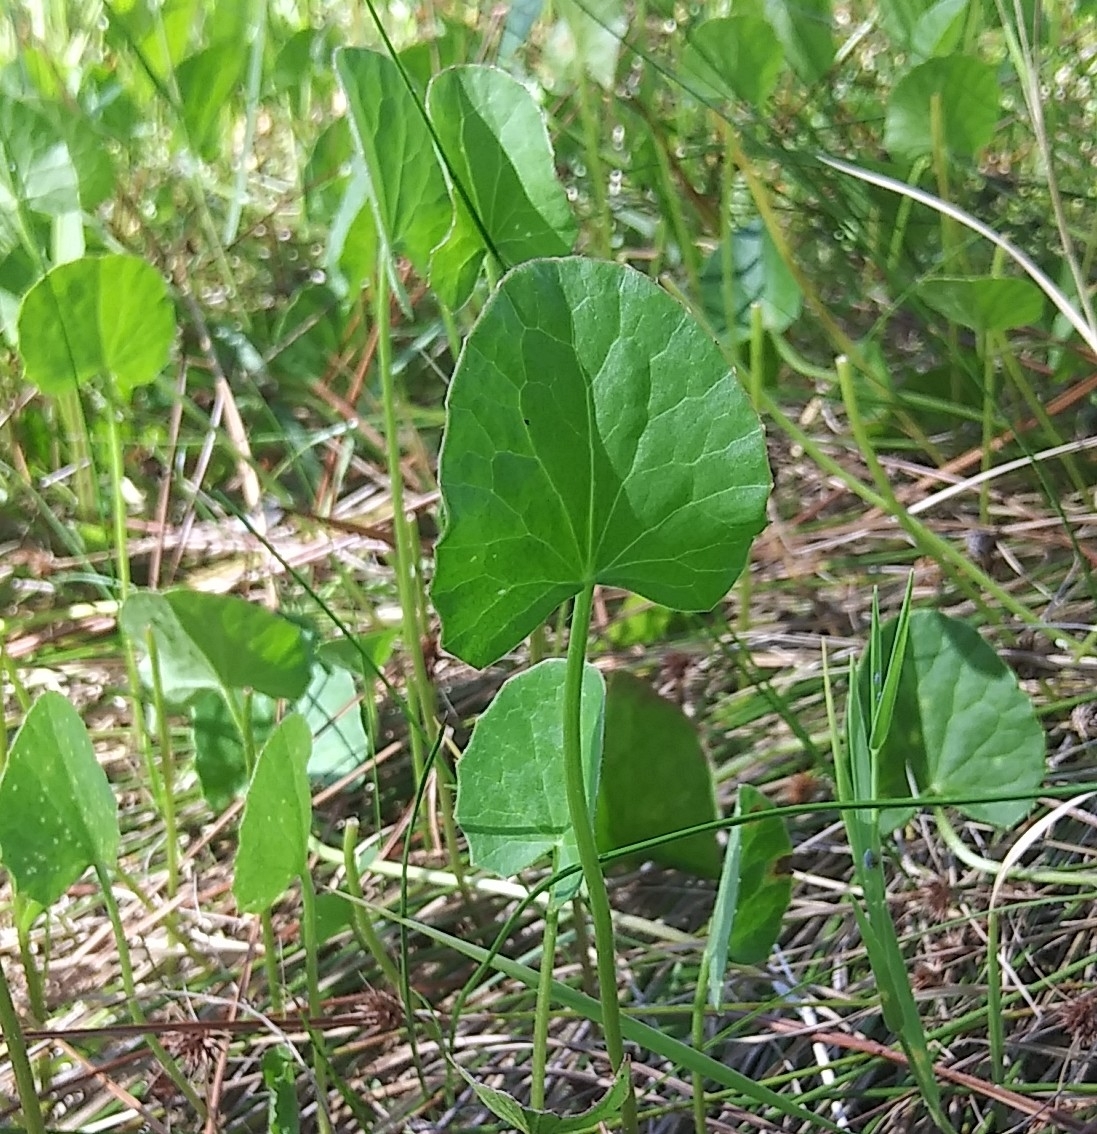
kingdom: Plantae
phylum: Tracheophyta
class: Magnoliopsida
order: Apiales
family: Apiaceae
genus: Centella
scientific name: Centella asiatica
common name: Spadeleaf
